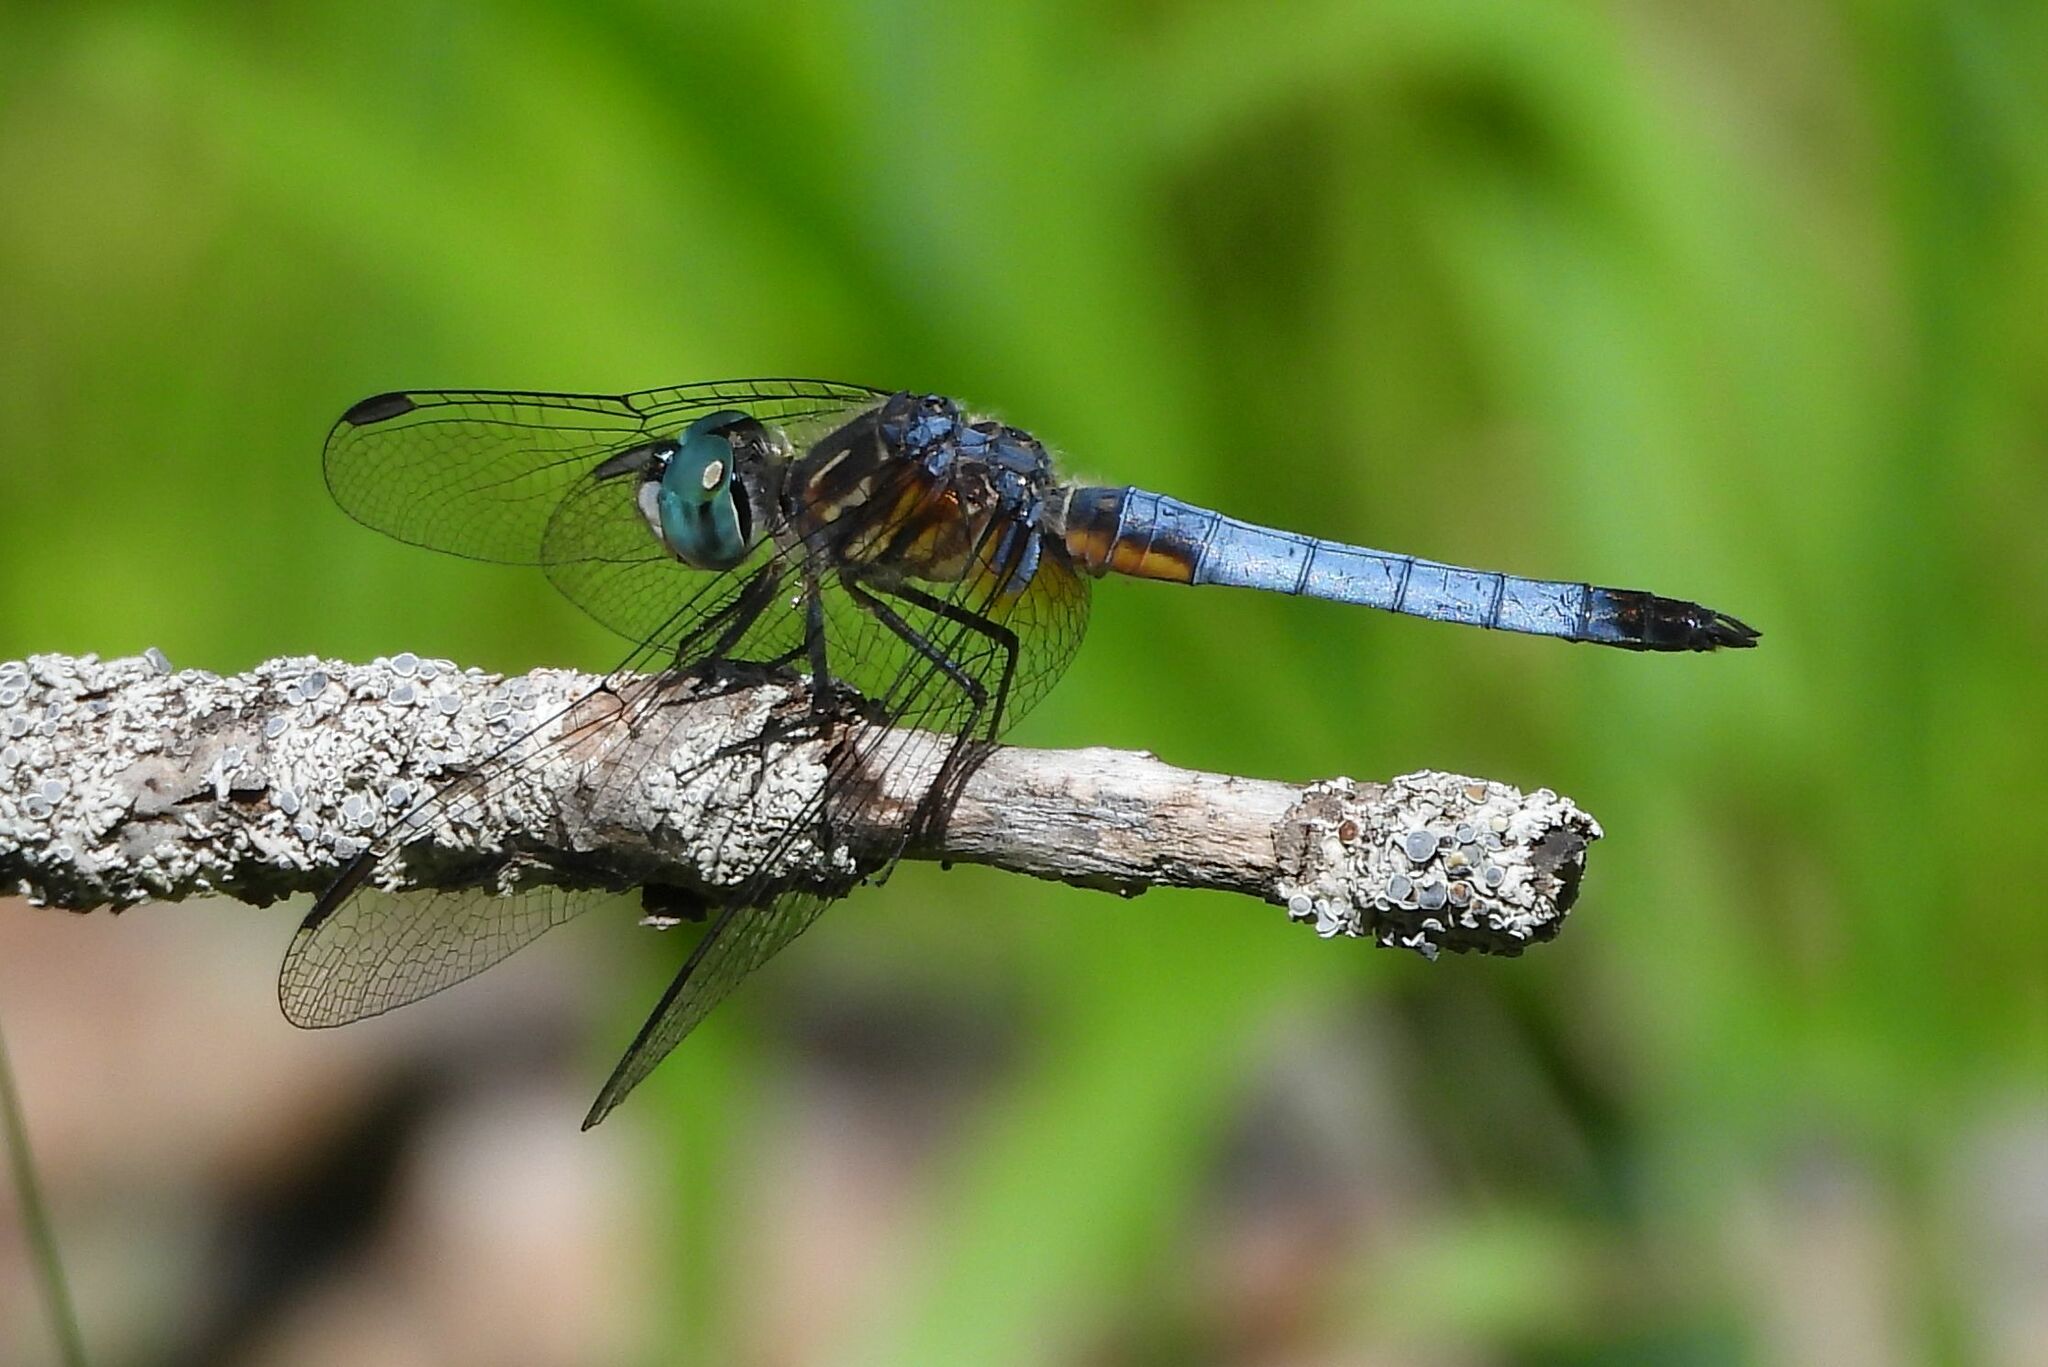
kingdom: Animalia
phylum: Arthropoda
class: Insecta
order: Odonata
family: Libellulidae
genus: Pachydiplax
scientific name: Pachydiplax longipennis
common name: Blue dasher
